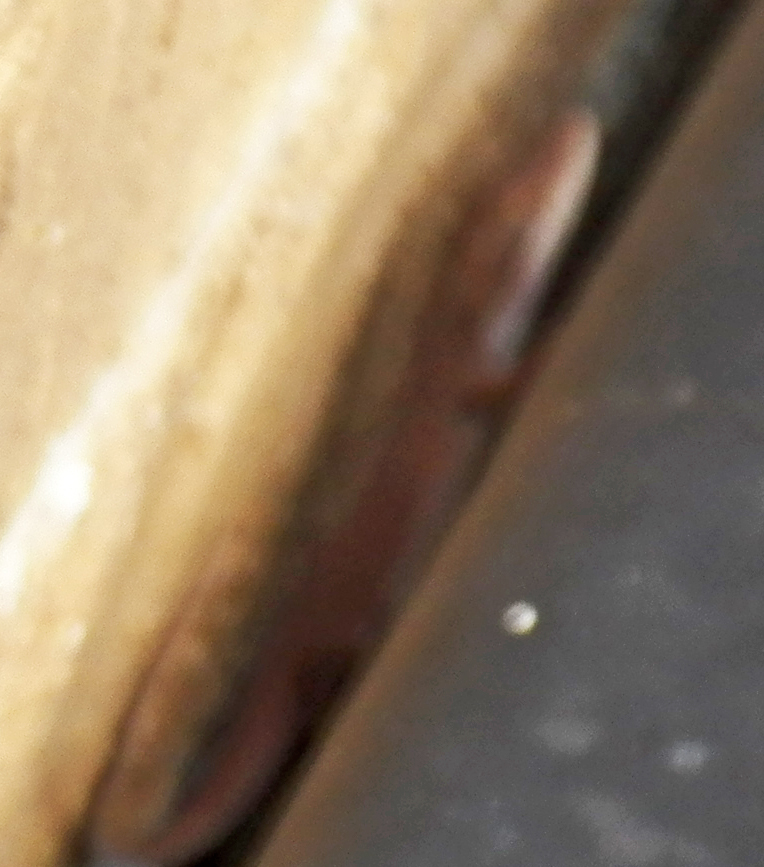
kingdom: Animalia
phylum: Chordata
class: Squamata
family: Dactyloidae
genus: Anolis
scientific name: Anolis carolinensis
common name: Green anole
